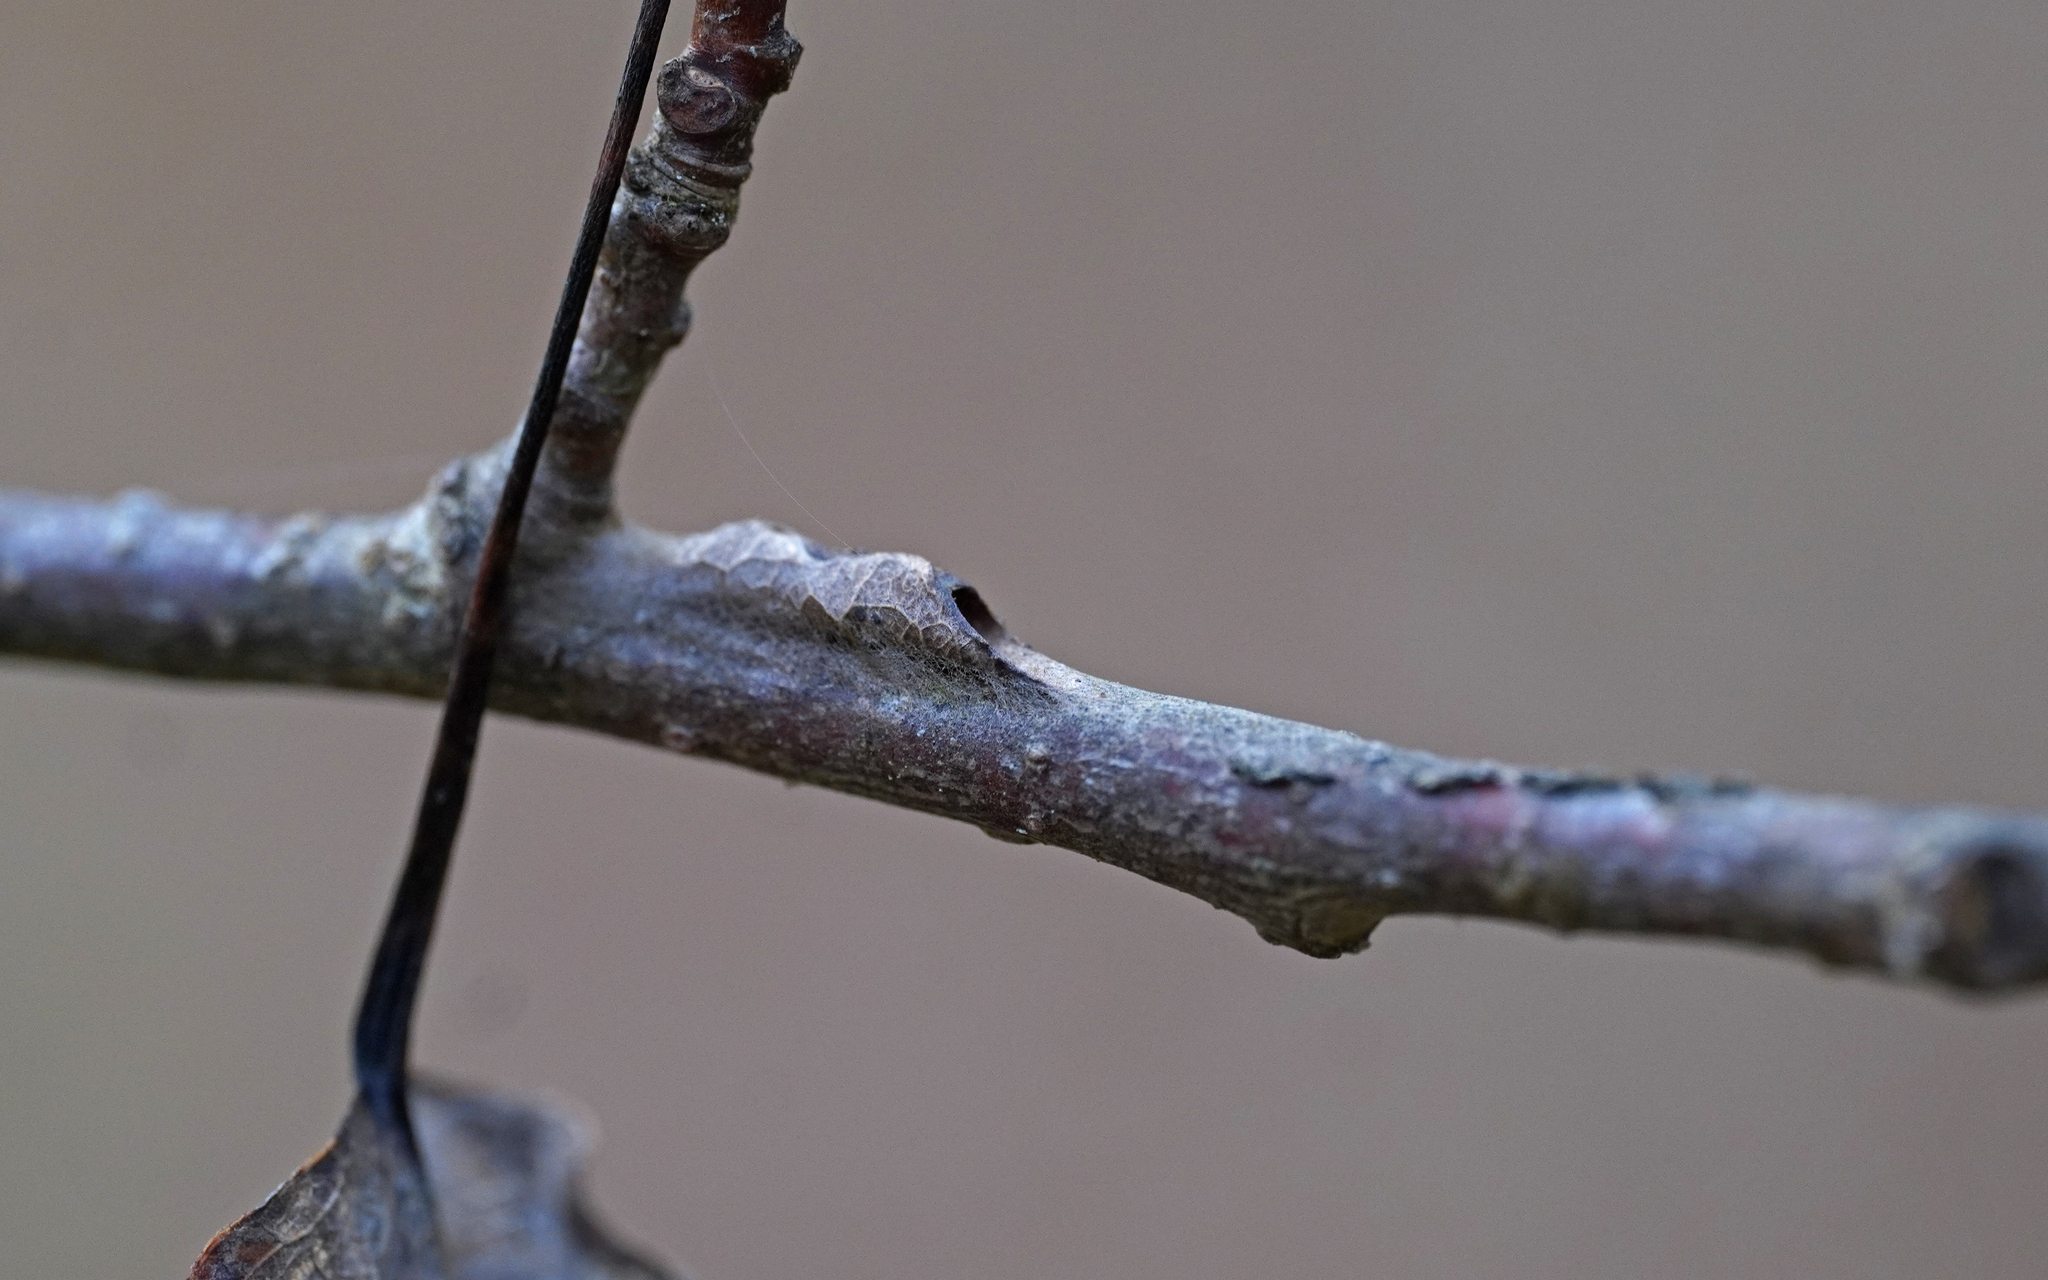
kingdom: Animalia
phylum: Arthropoda
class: Insecta
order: Lepidoptera
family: Nymphalidae
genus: Limenitis
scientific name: Limenitis populi
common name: Poplar admiral
